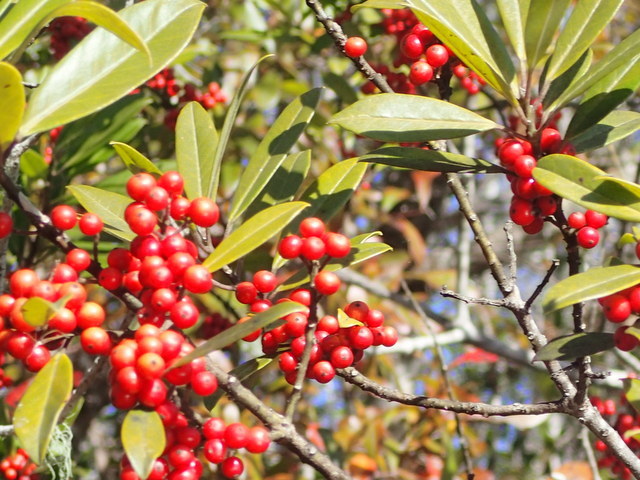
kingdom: Plantae
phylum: Tracheophyta
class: Magnoliopsida
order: Aquifoliales
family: Aquifoliaceae
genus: Ilex
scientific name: Ilex cassine
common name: Dahoon
